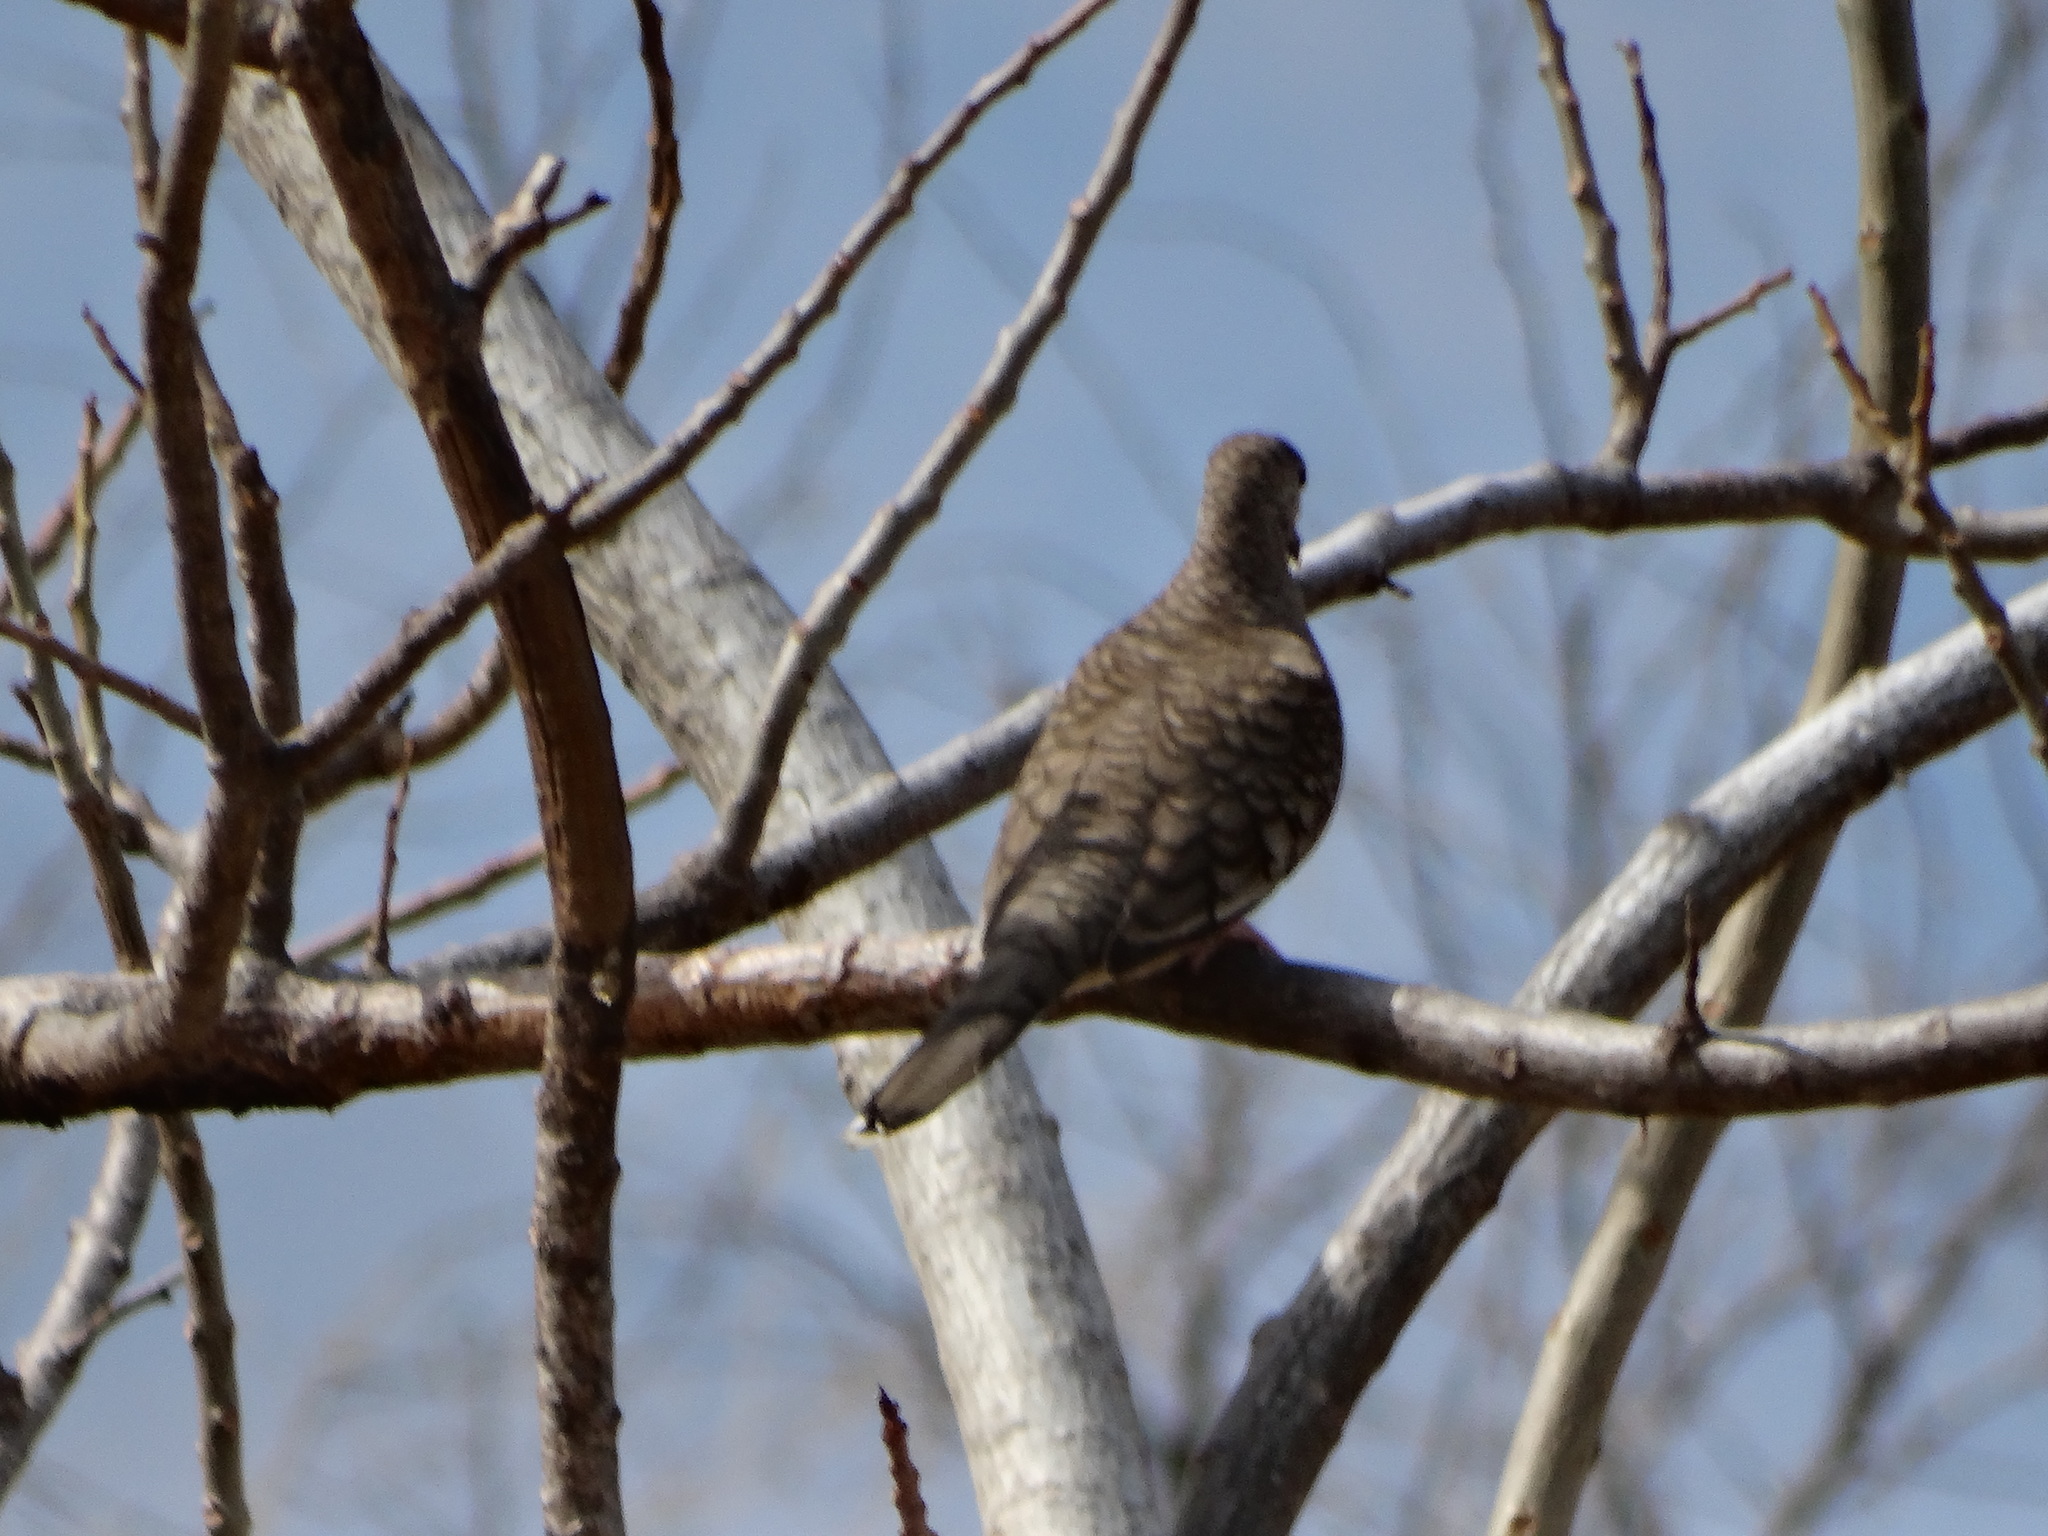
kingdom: Animalia
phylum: Chordata
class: Aves
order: Columbiformes
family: Columbidae
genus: Columbina
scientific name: Columbina inca
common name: Inca dove
